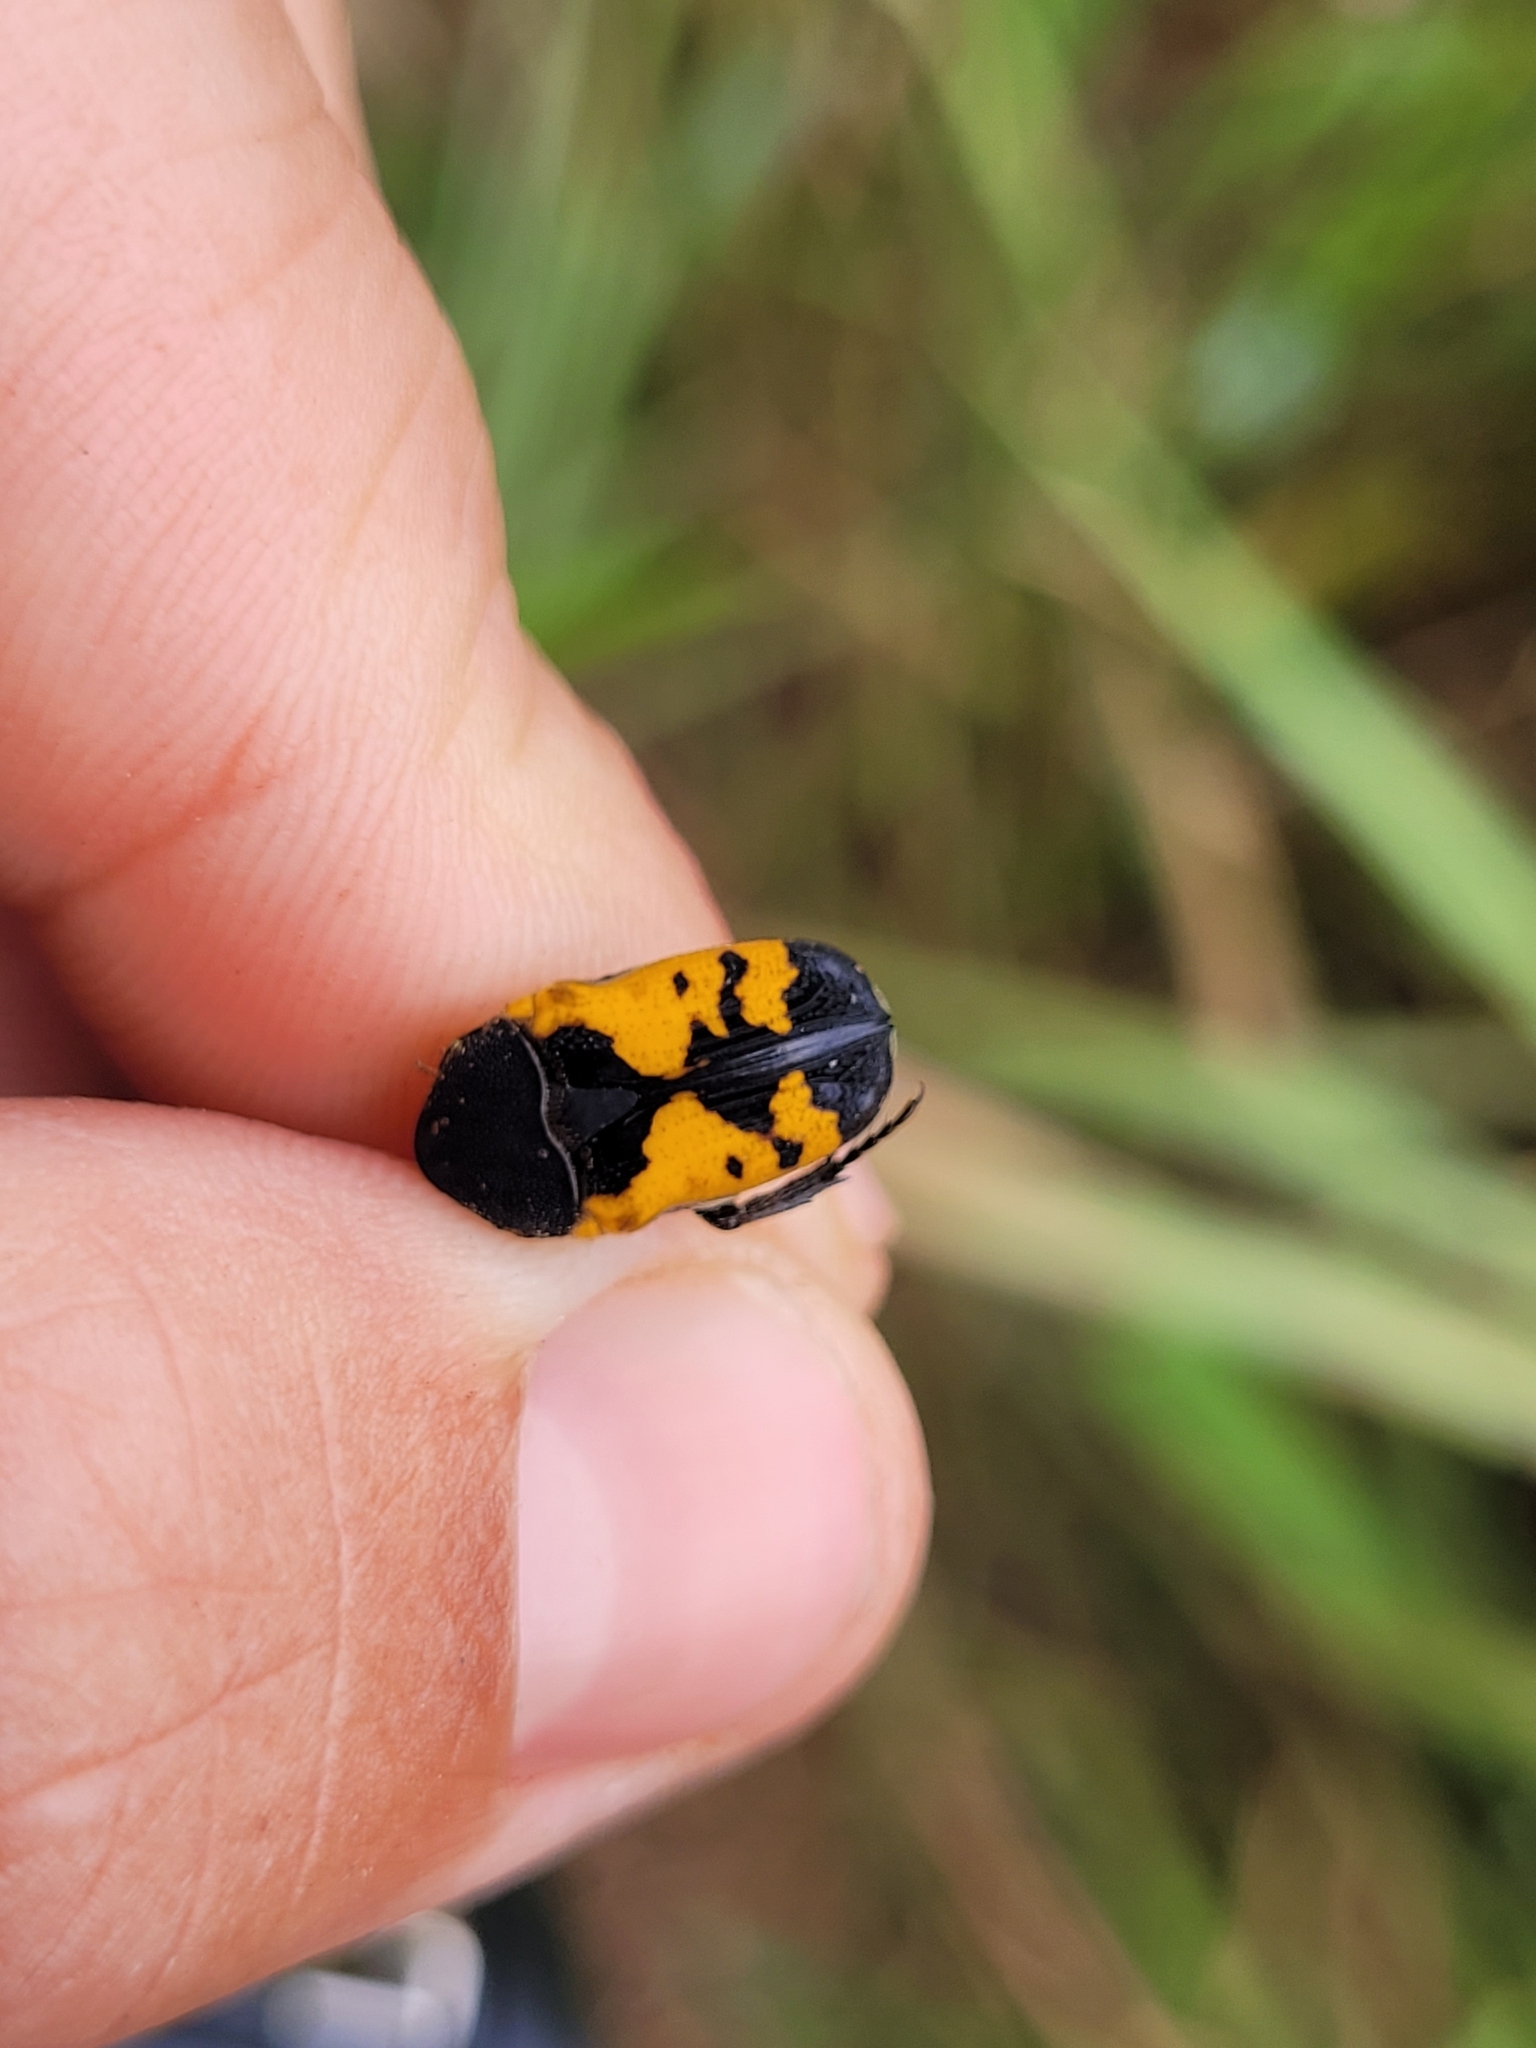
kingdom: Animalia
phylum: Arthropoda
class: Insecta
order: Coleoptera
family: Scarabaeidae
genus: Gametoides
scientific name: Gametoides sanguinolenta
